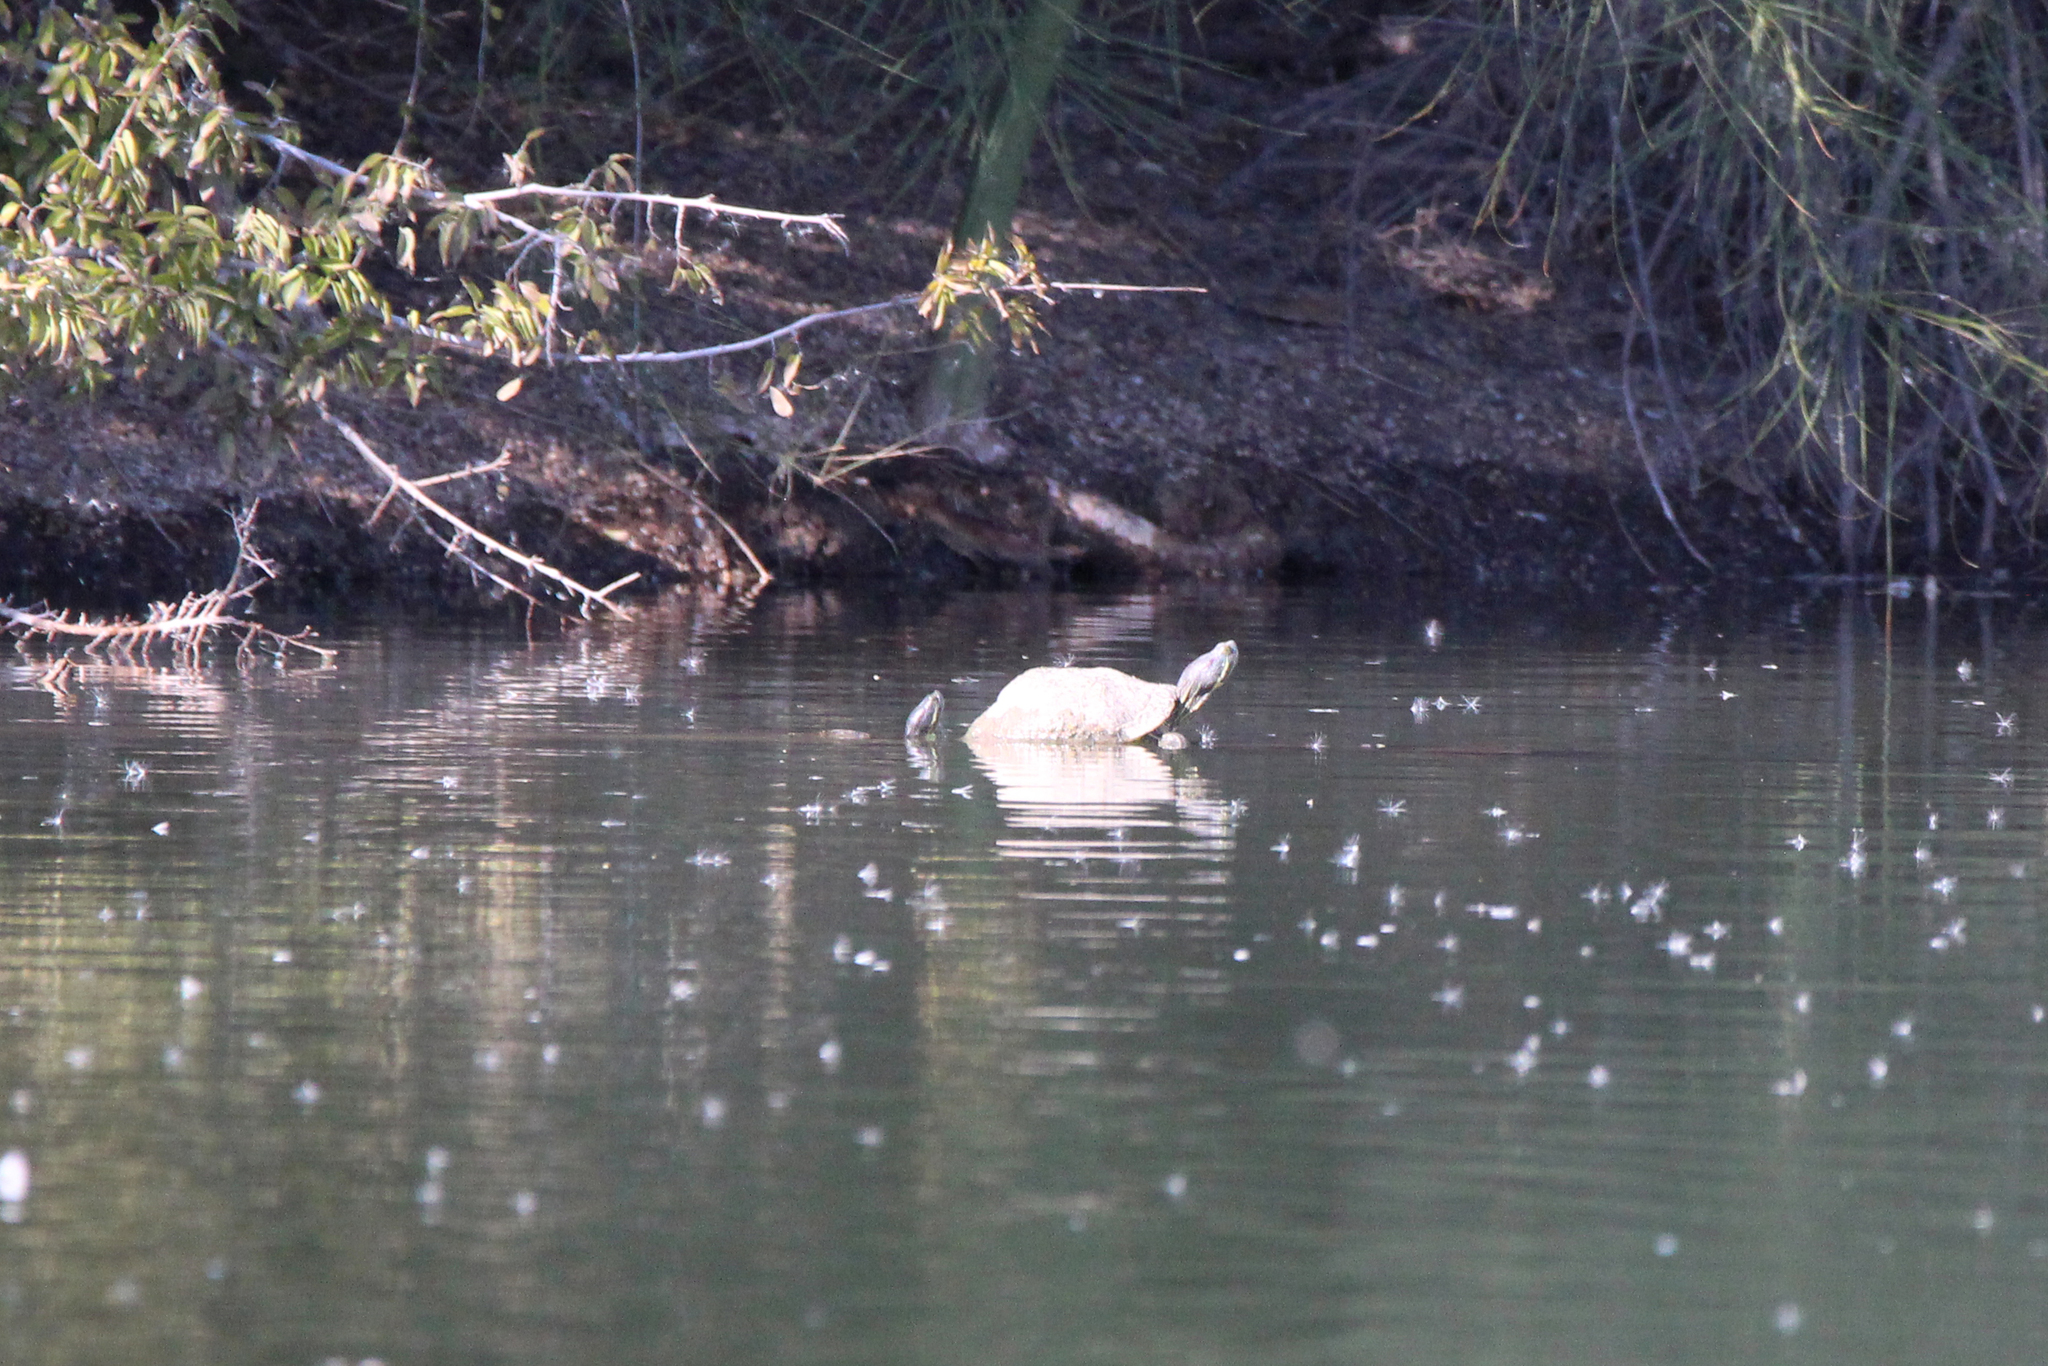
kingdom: Animalia
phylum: Chordata
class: Testudines
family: Emydidae
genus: Trachemys
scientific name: Trachemys scripta
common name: Slider
